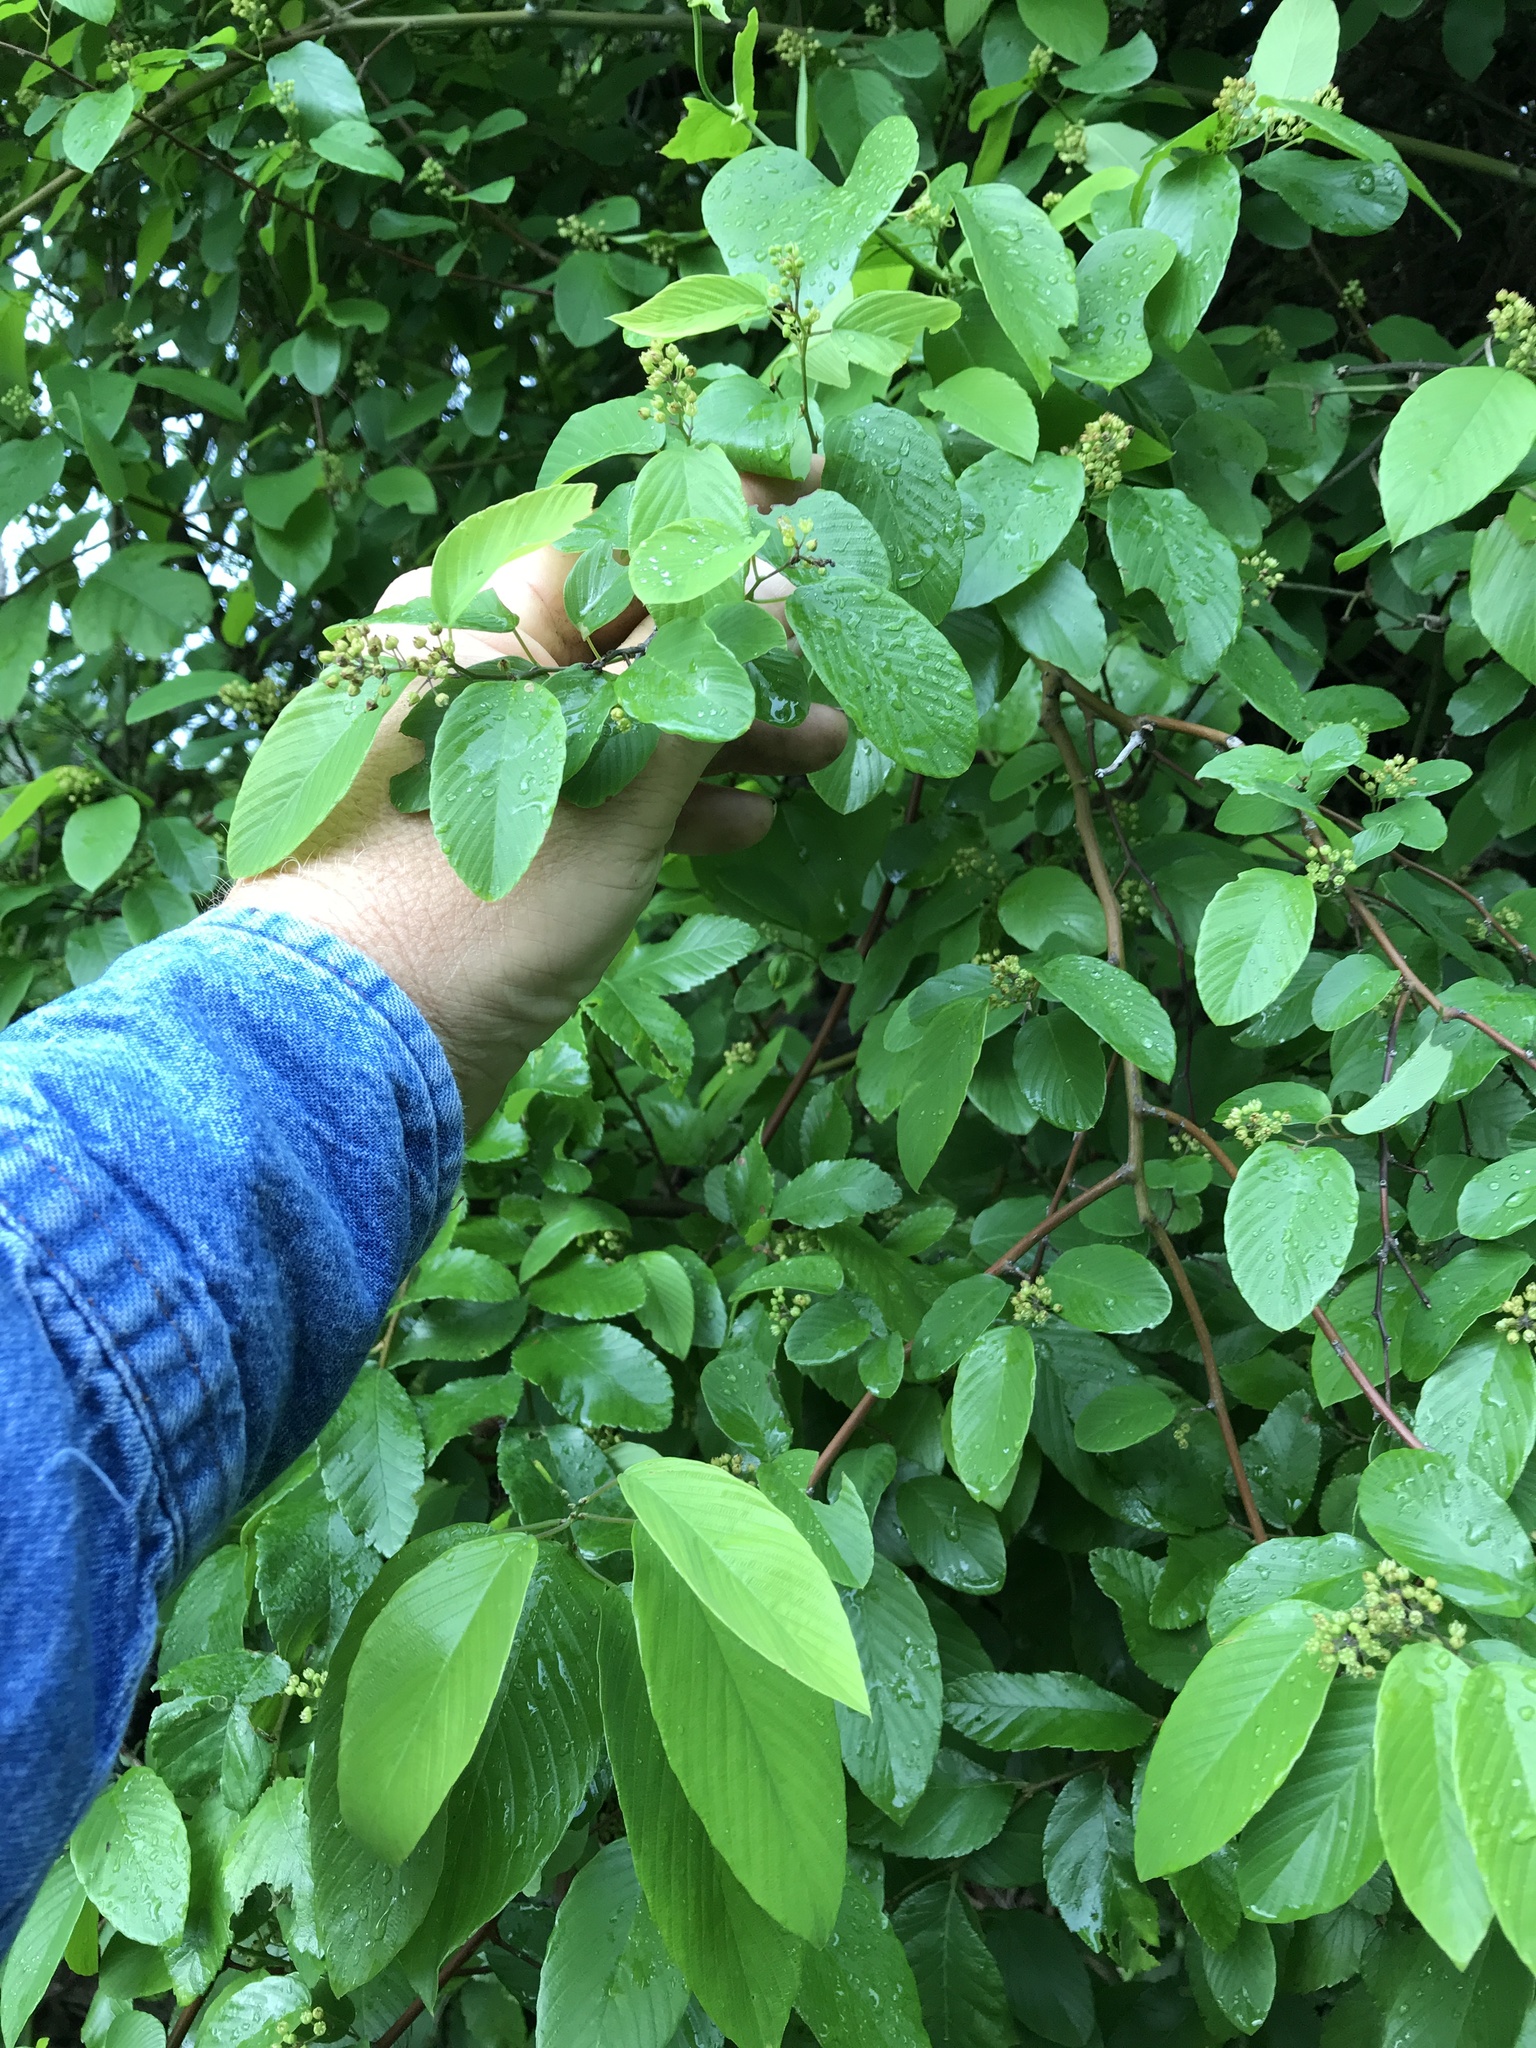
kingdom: Plantae
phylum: Tracheophyta
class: Magnoliopsida
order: Rosales
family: Rhamnaceae
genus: Berchemia
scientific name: Berchemia scandens
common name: Supplejack
